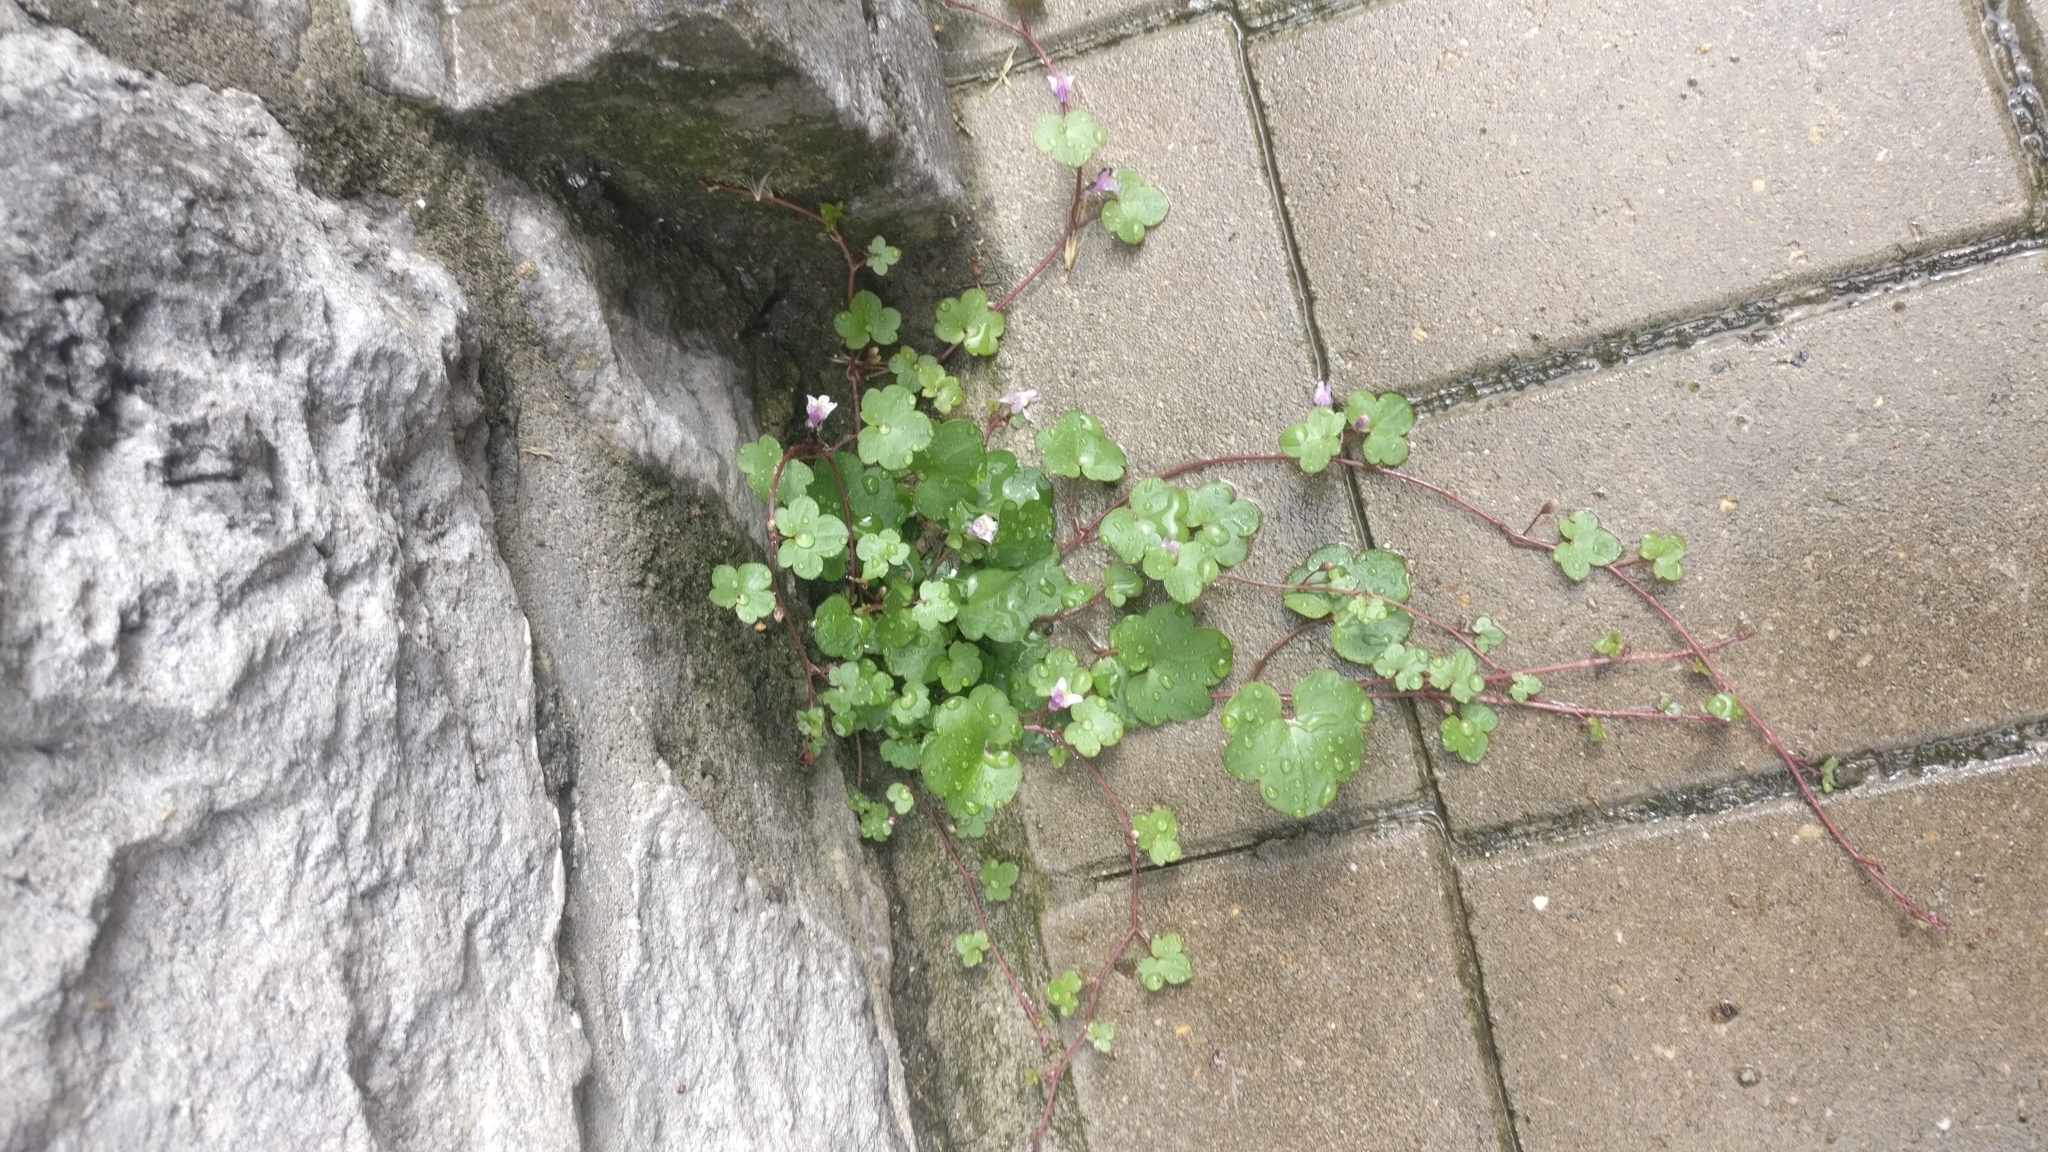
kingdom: Plantae
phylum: Tracheophyta
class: Magnoliopsida
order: Lamiales
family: Plantaginaceae
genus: Cymbalaria
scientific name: Cymbalaria muralis
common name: Ivy-leaved toadflax
